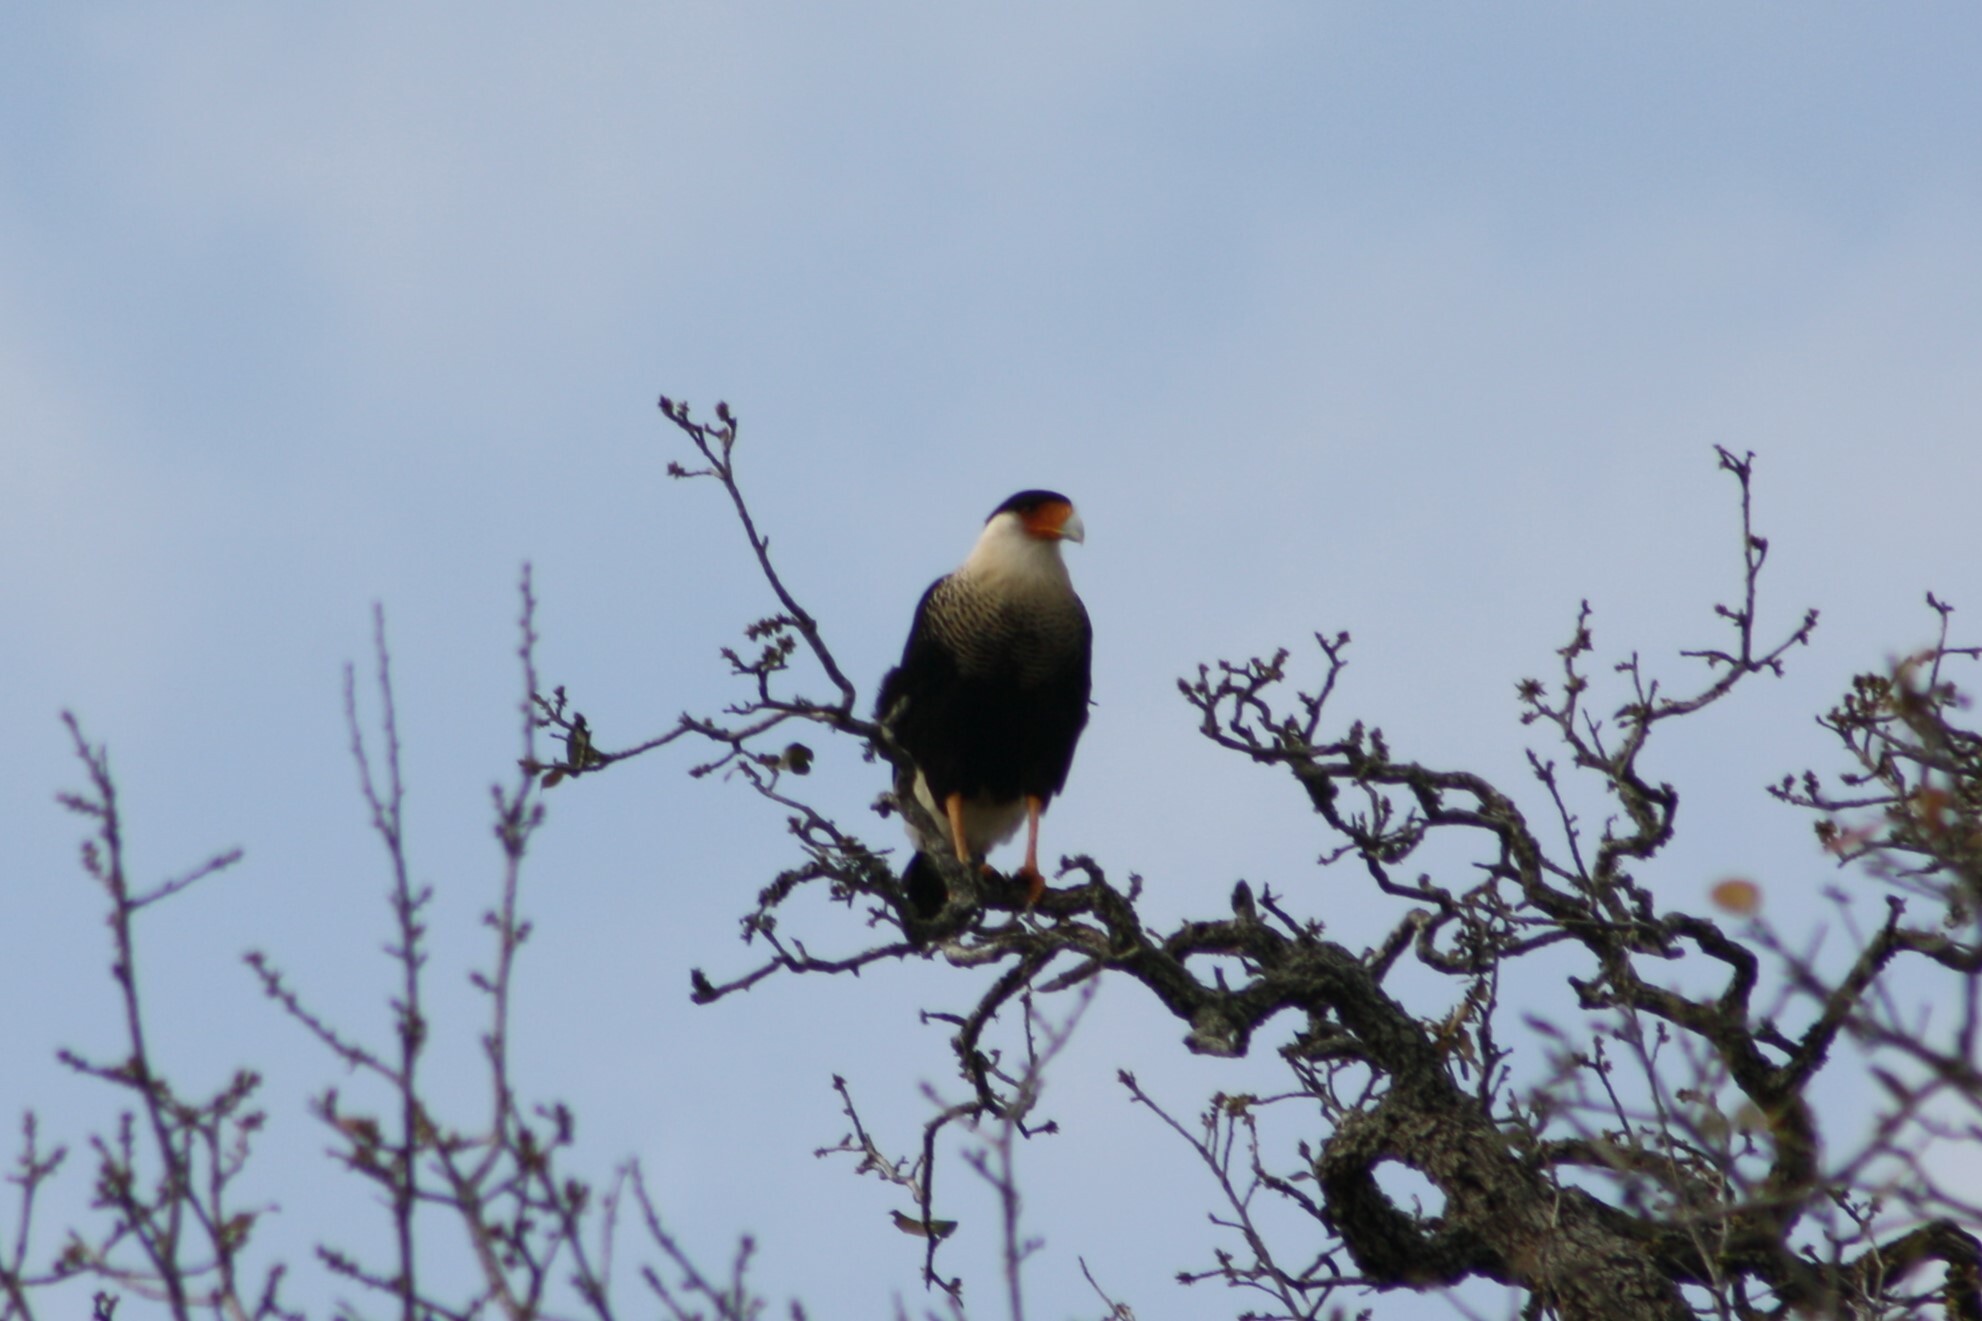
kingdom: Animalia
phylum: Chordata
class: Aves
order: Falconiformes
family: Falconidae
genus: Caracara
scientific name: Caracara plancus
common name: Southern caracara
